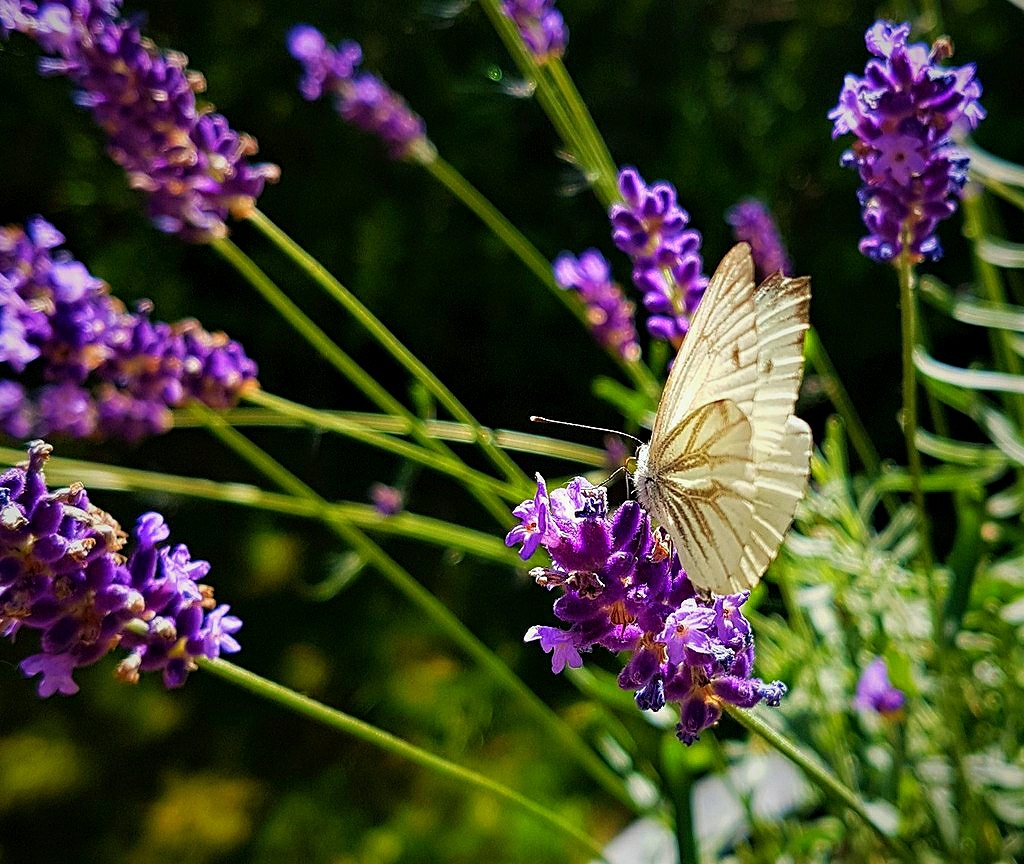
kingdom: Animalia
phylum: Arthropoda
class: Insecta
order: Lepidoptera
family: Pieridae
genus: Pieris
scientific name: Pieris napi
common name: Green-veined white
